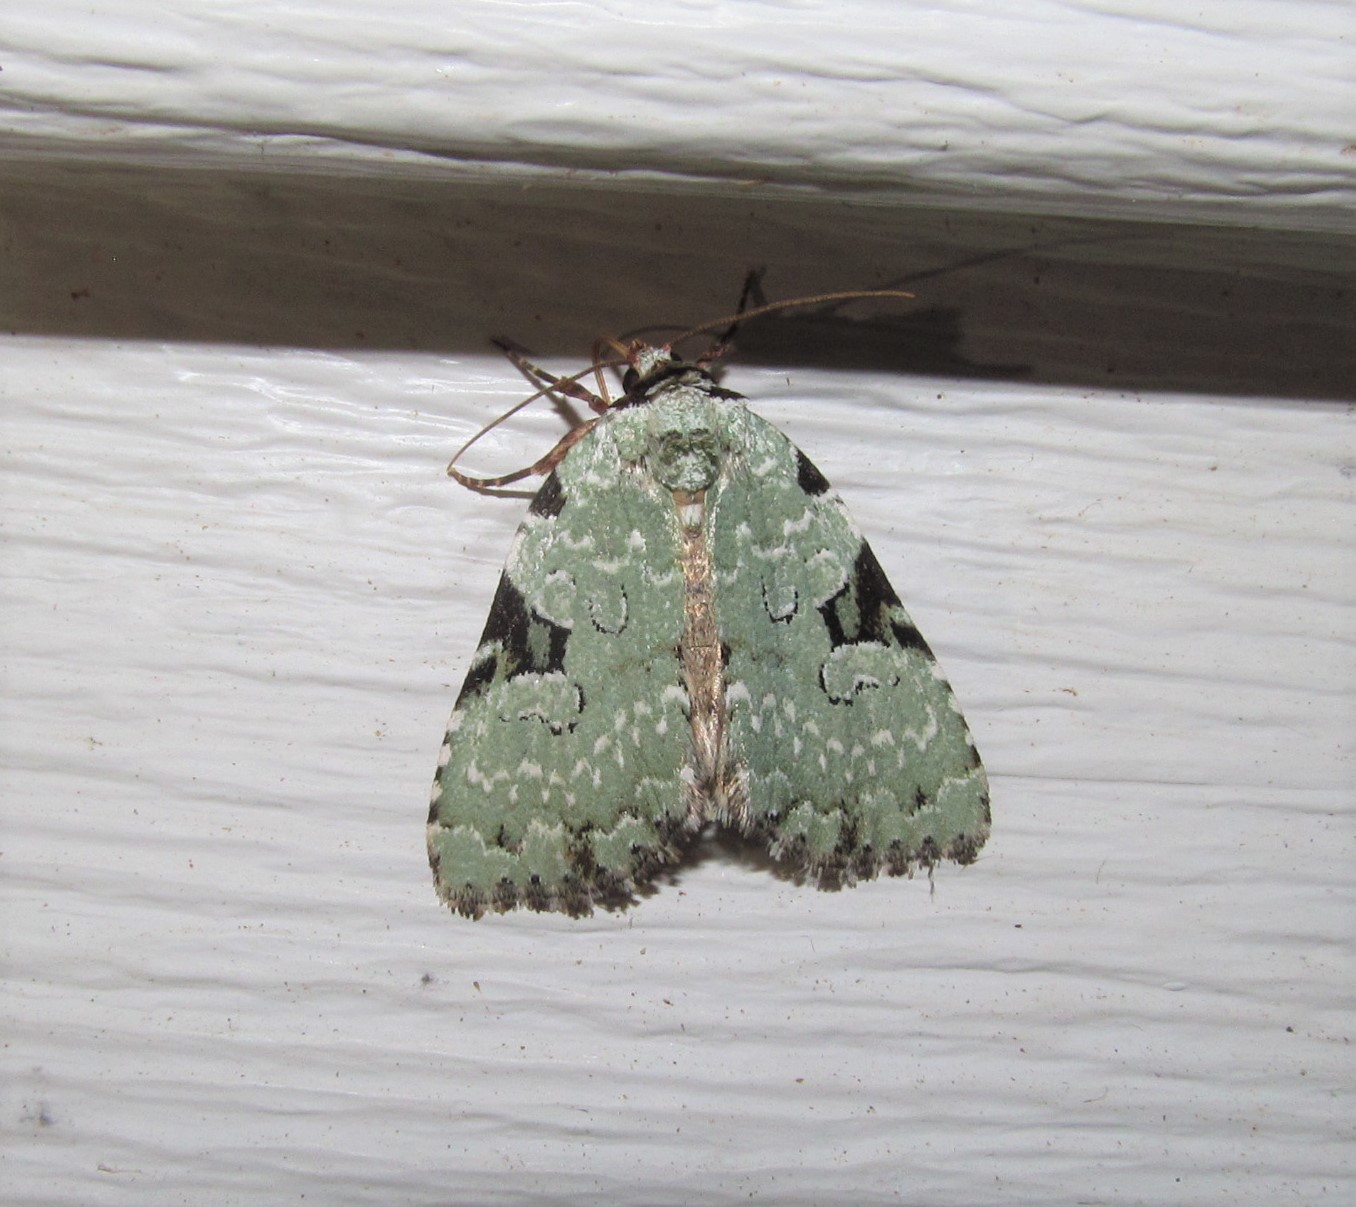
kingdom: Animalia
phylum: Arthropoda
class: Insecta
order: Lepidoptera
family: Noctuidae
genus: Leuconycta
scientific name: Leuconycta diphteroides
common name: Green leuconycta moth
